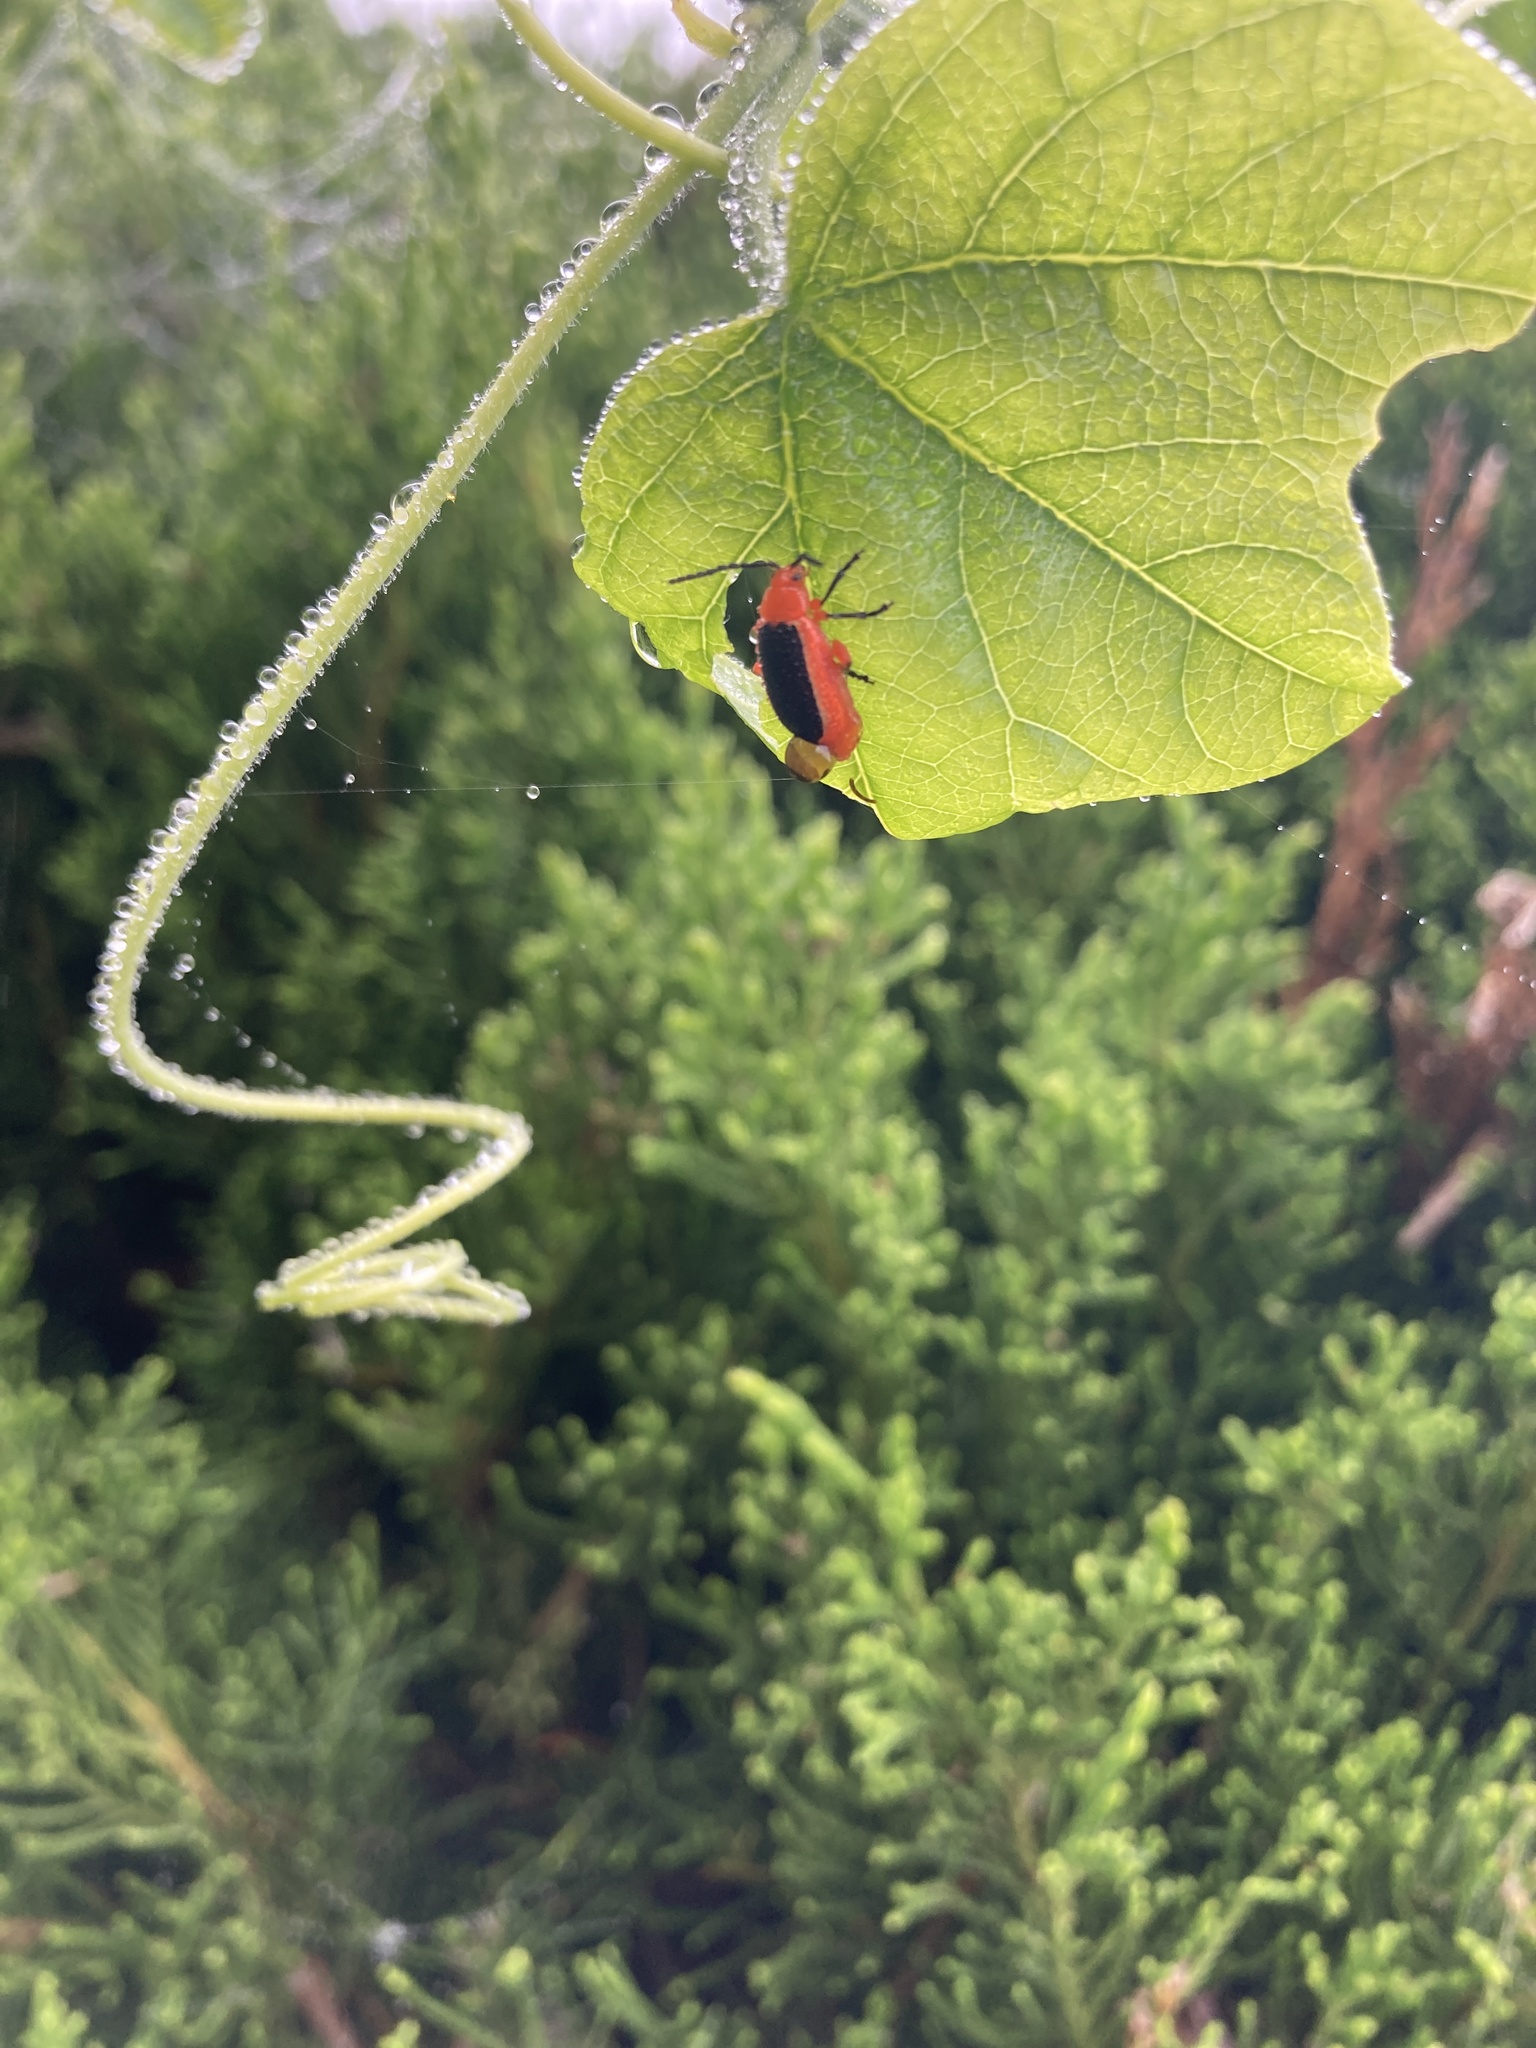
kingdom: Animalia
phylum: Arthropoda
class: Insecta
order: Coleoptera
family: Chrysomelidae
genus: Disonycha
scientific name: Disonycha discoidea
